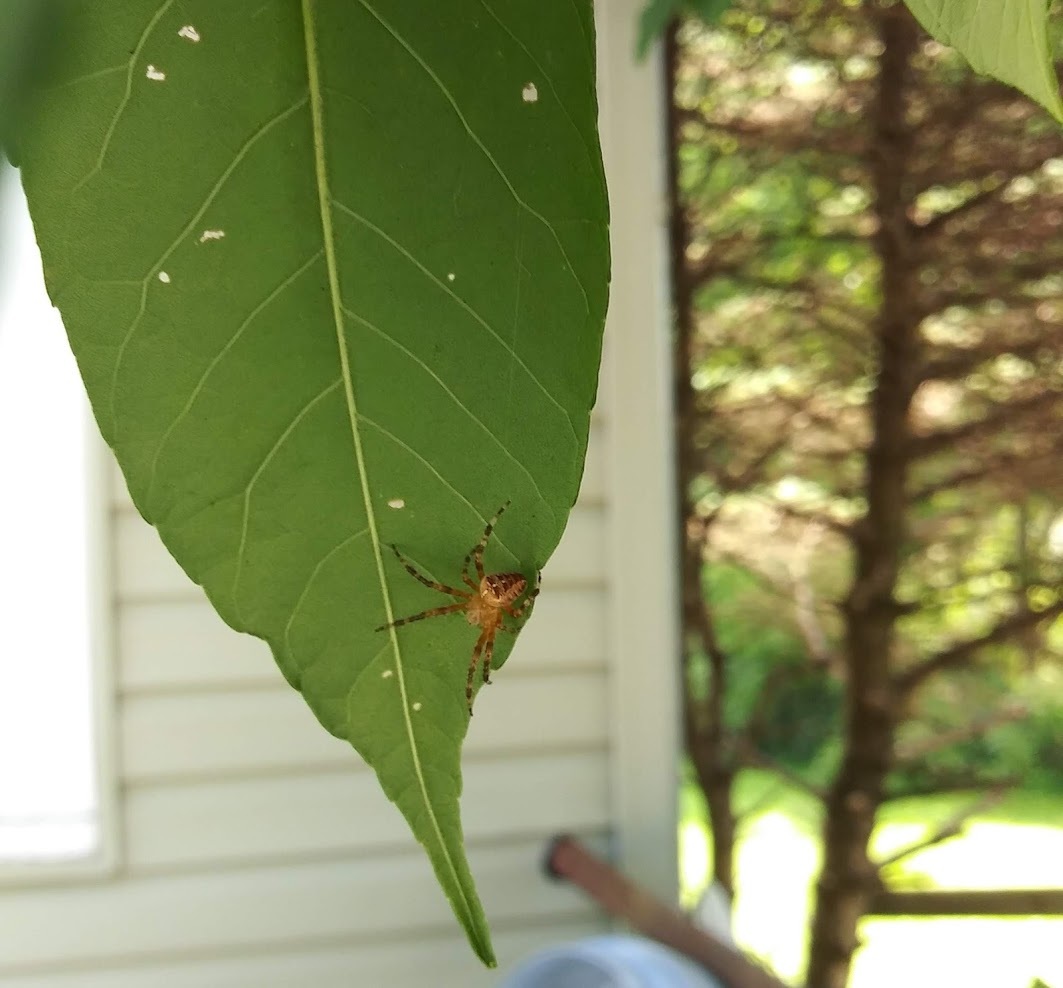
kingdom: Animalia
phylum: Arthropoda
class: Arachnida
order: Araneae
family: Araneidae
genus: Araneus
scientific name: Araneus diadematus
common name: Cross orbweaver
